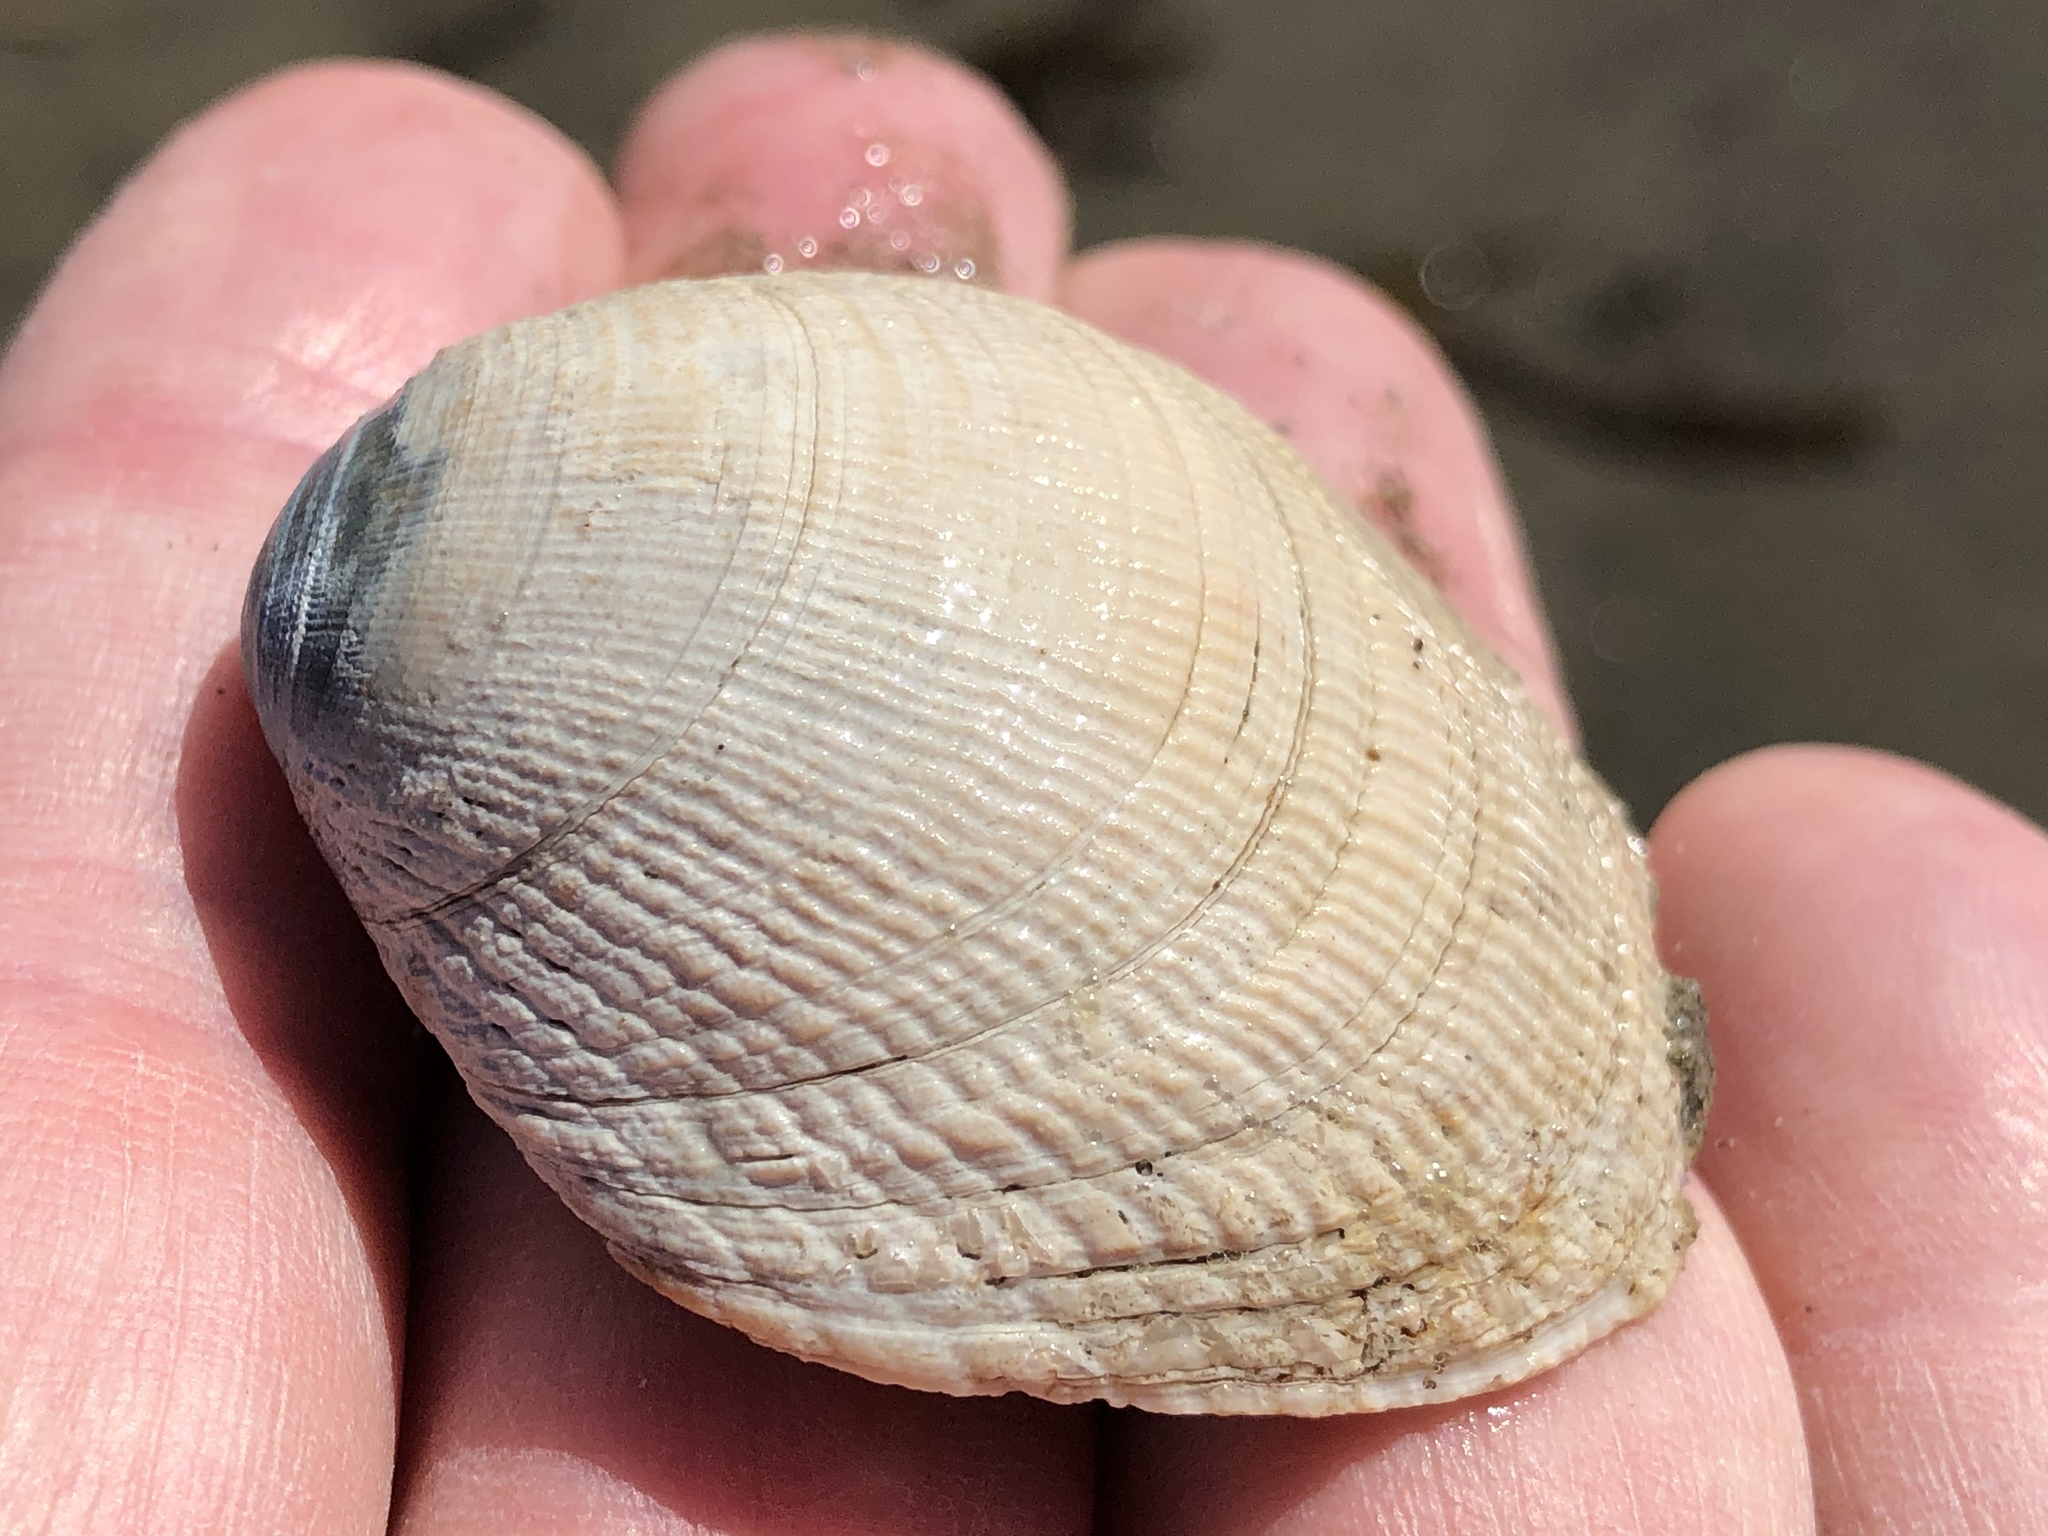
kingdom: Animalia
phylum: Mollusca
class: Bivalvia
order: Venerida
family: Veneridae
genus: Leukoma
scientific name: Leukoma staminea
